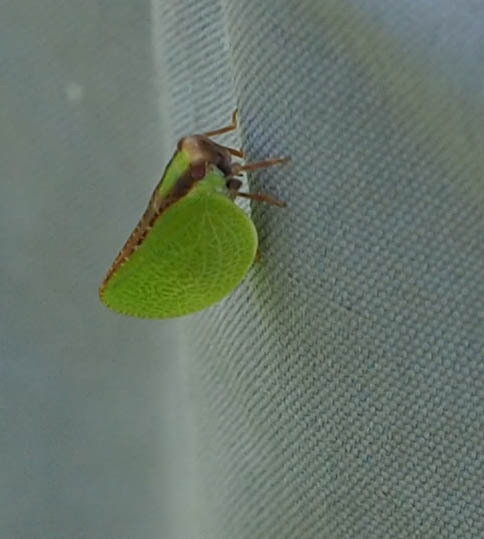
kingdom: Animalia
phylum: Arthropoda
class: Insecta
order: Hemiptera
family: Acanaloniidae
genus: Acanalonia
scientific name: Acanalonia bivittata
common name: Two-striped planthopper
